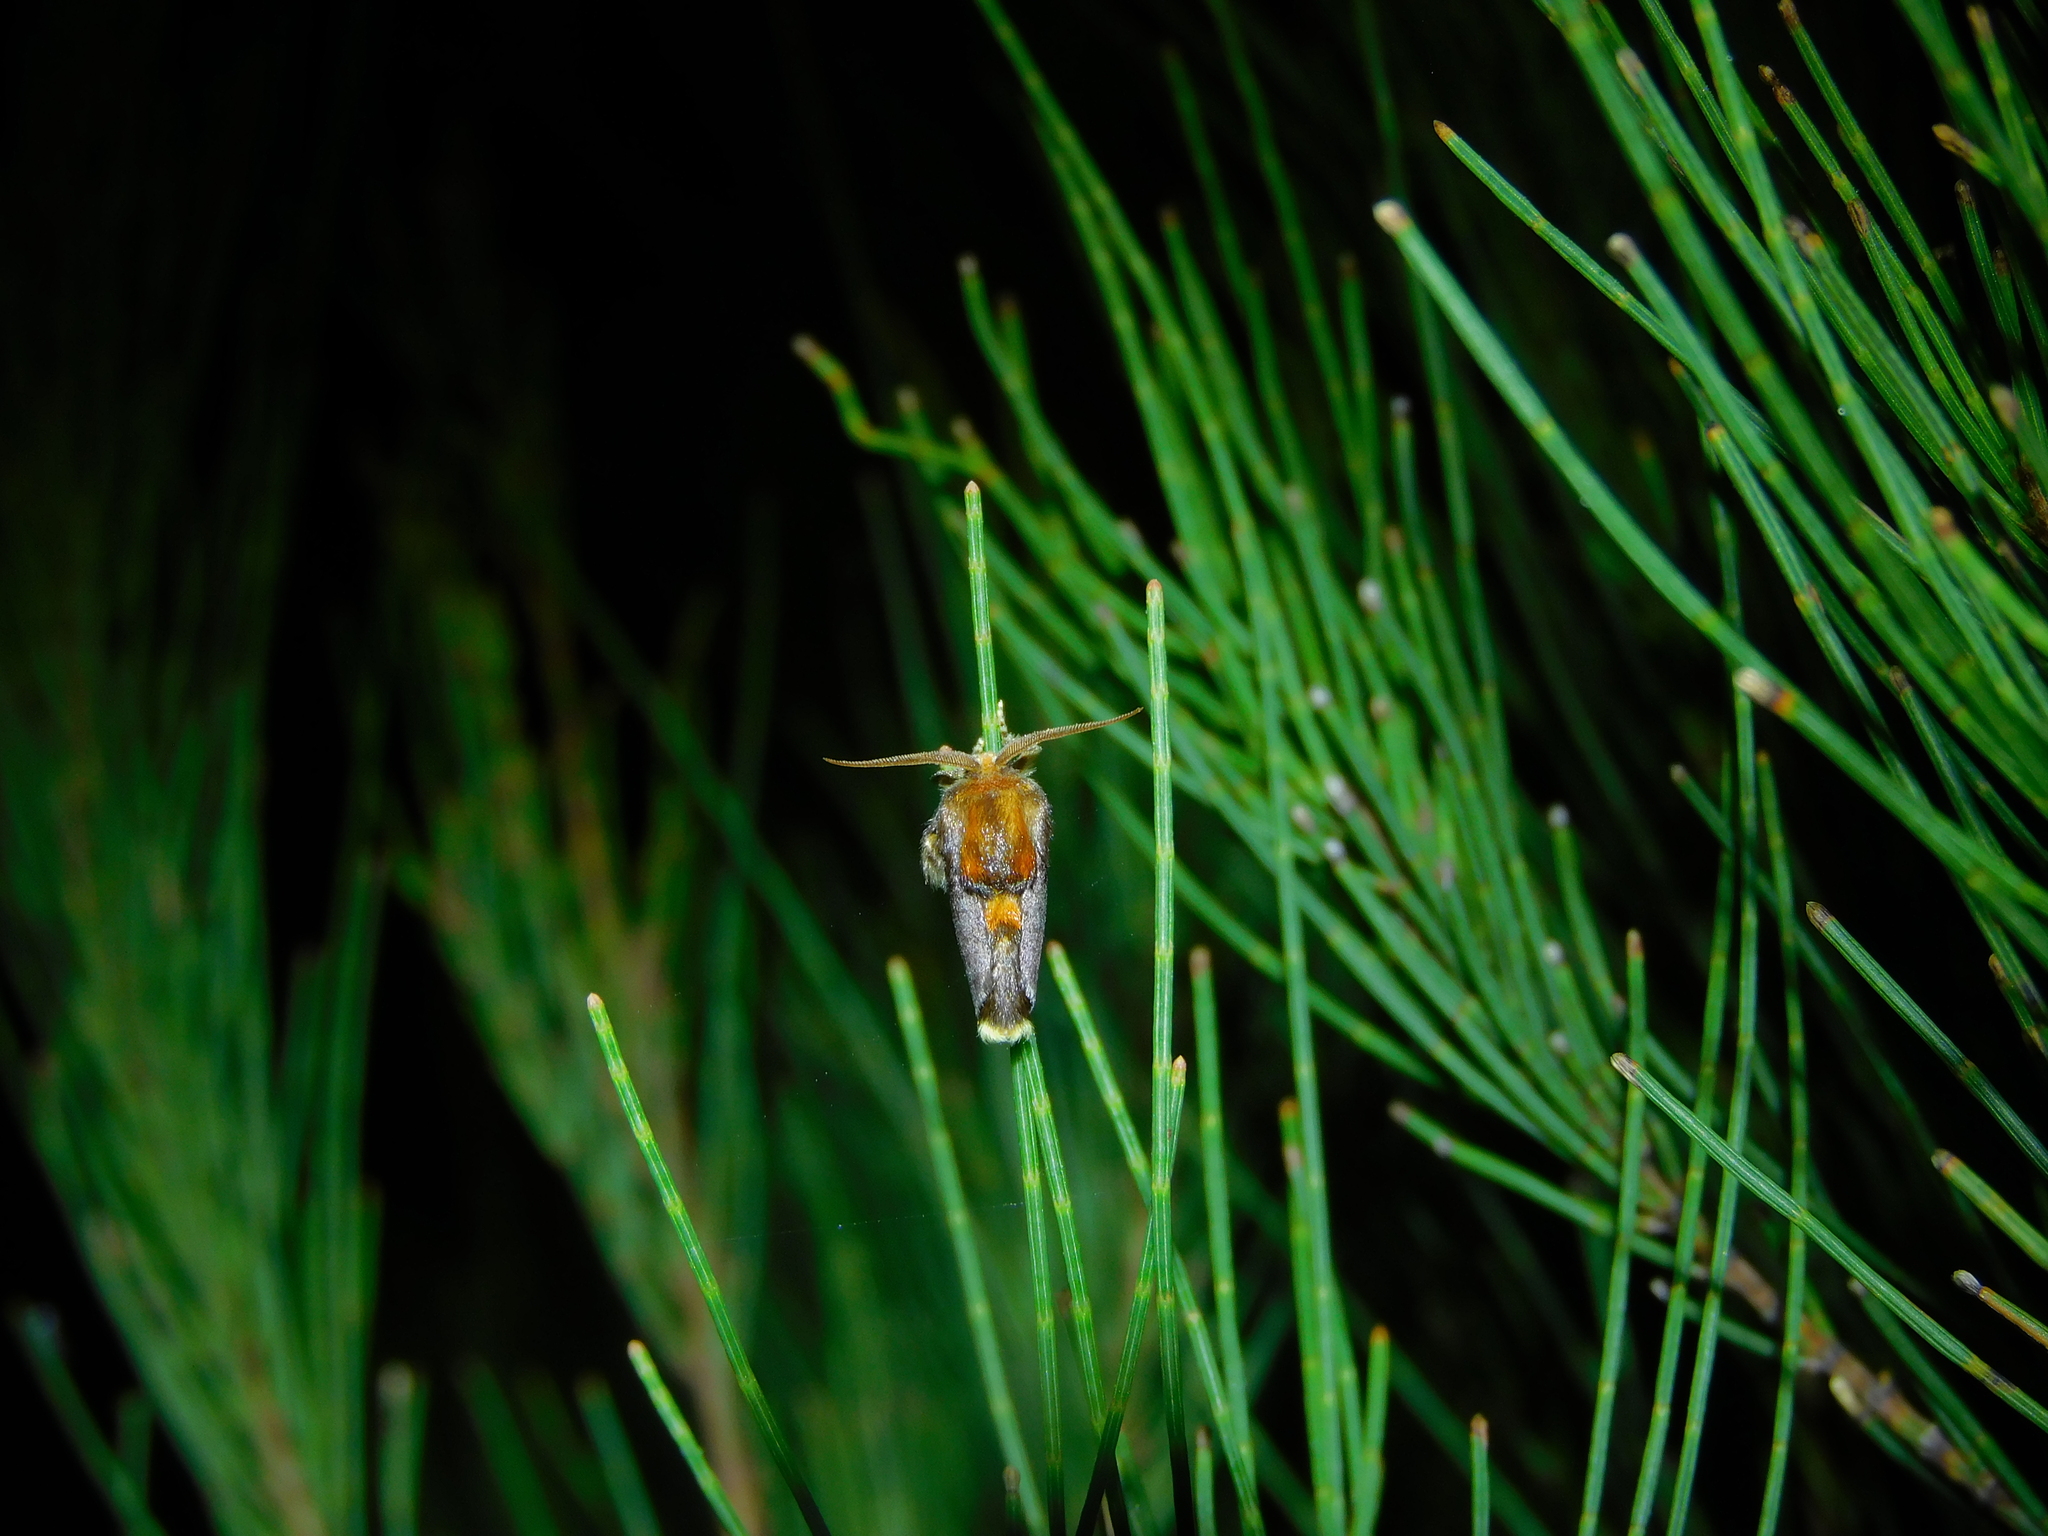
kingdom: Animalia
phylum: Arthropoda
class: Insecta
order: Lepidoptera
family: Limacodidae
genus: Doratifera
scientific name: Doratifera oxleyi
